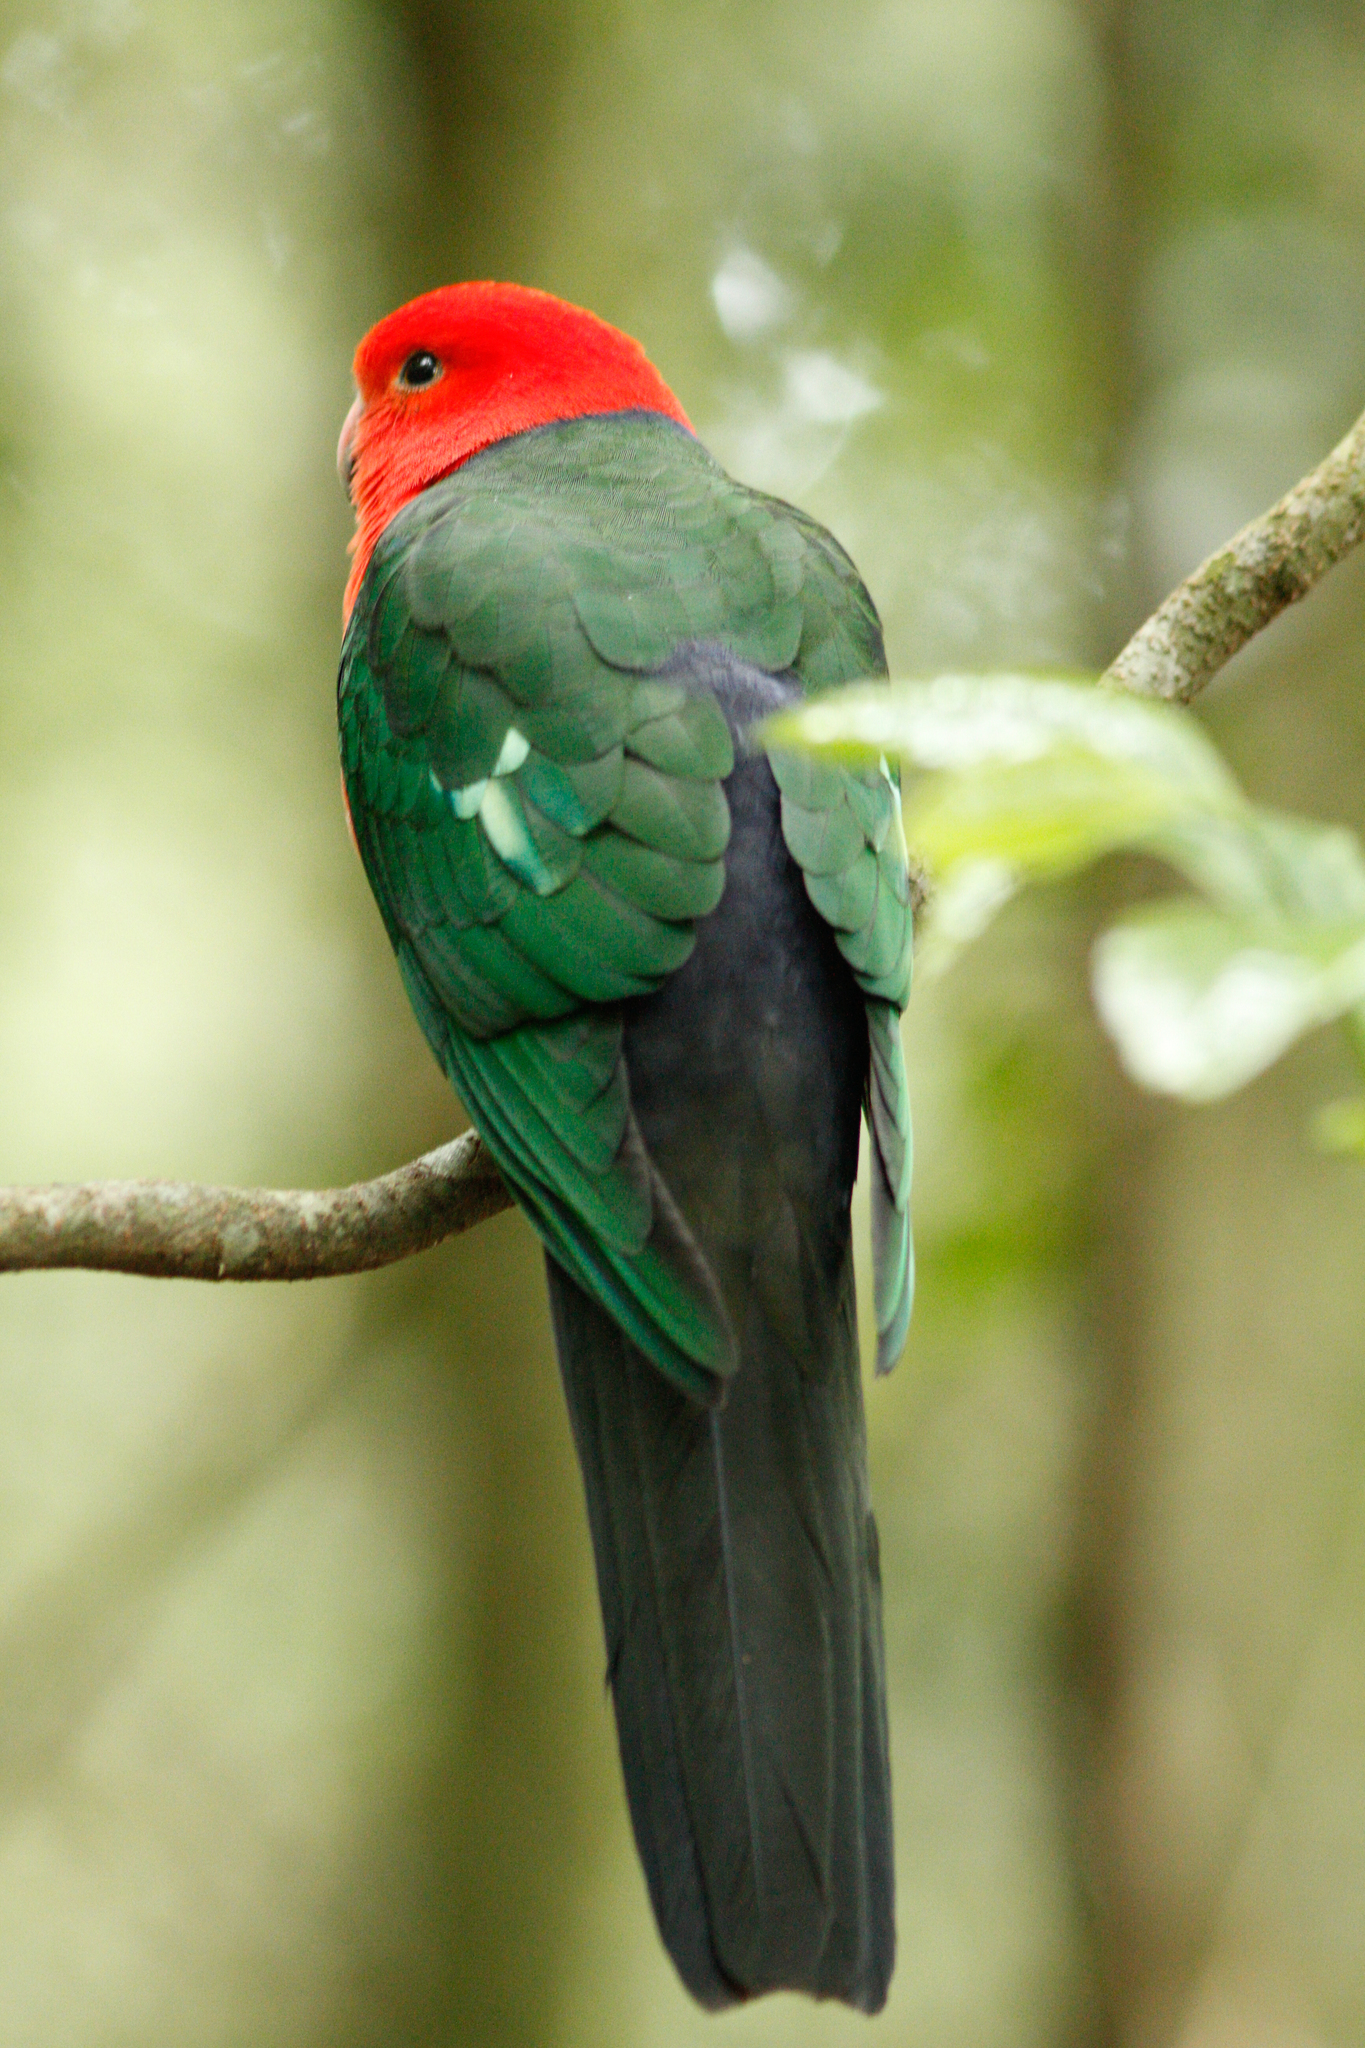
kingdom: Animalia
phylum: Chordata
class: Aves
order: Psittaciformes
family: Psittacidae
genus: Alisterus
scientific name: Alisterus scapularis
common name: Australian king parrot
